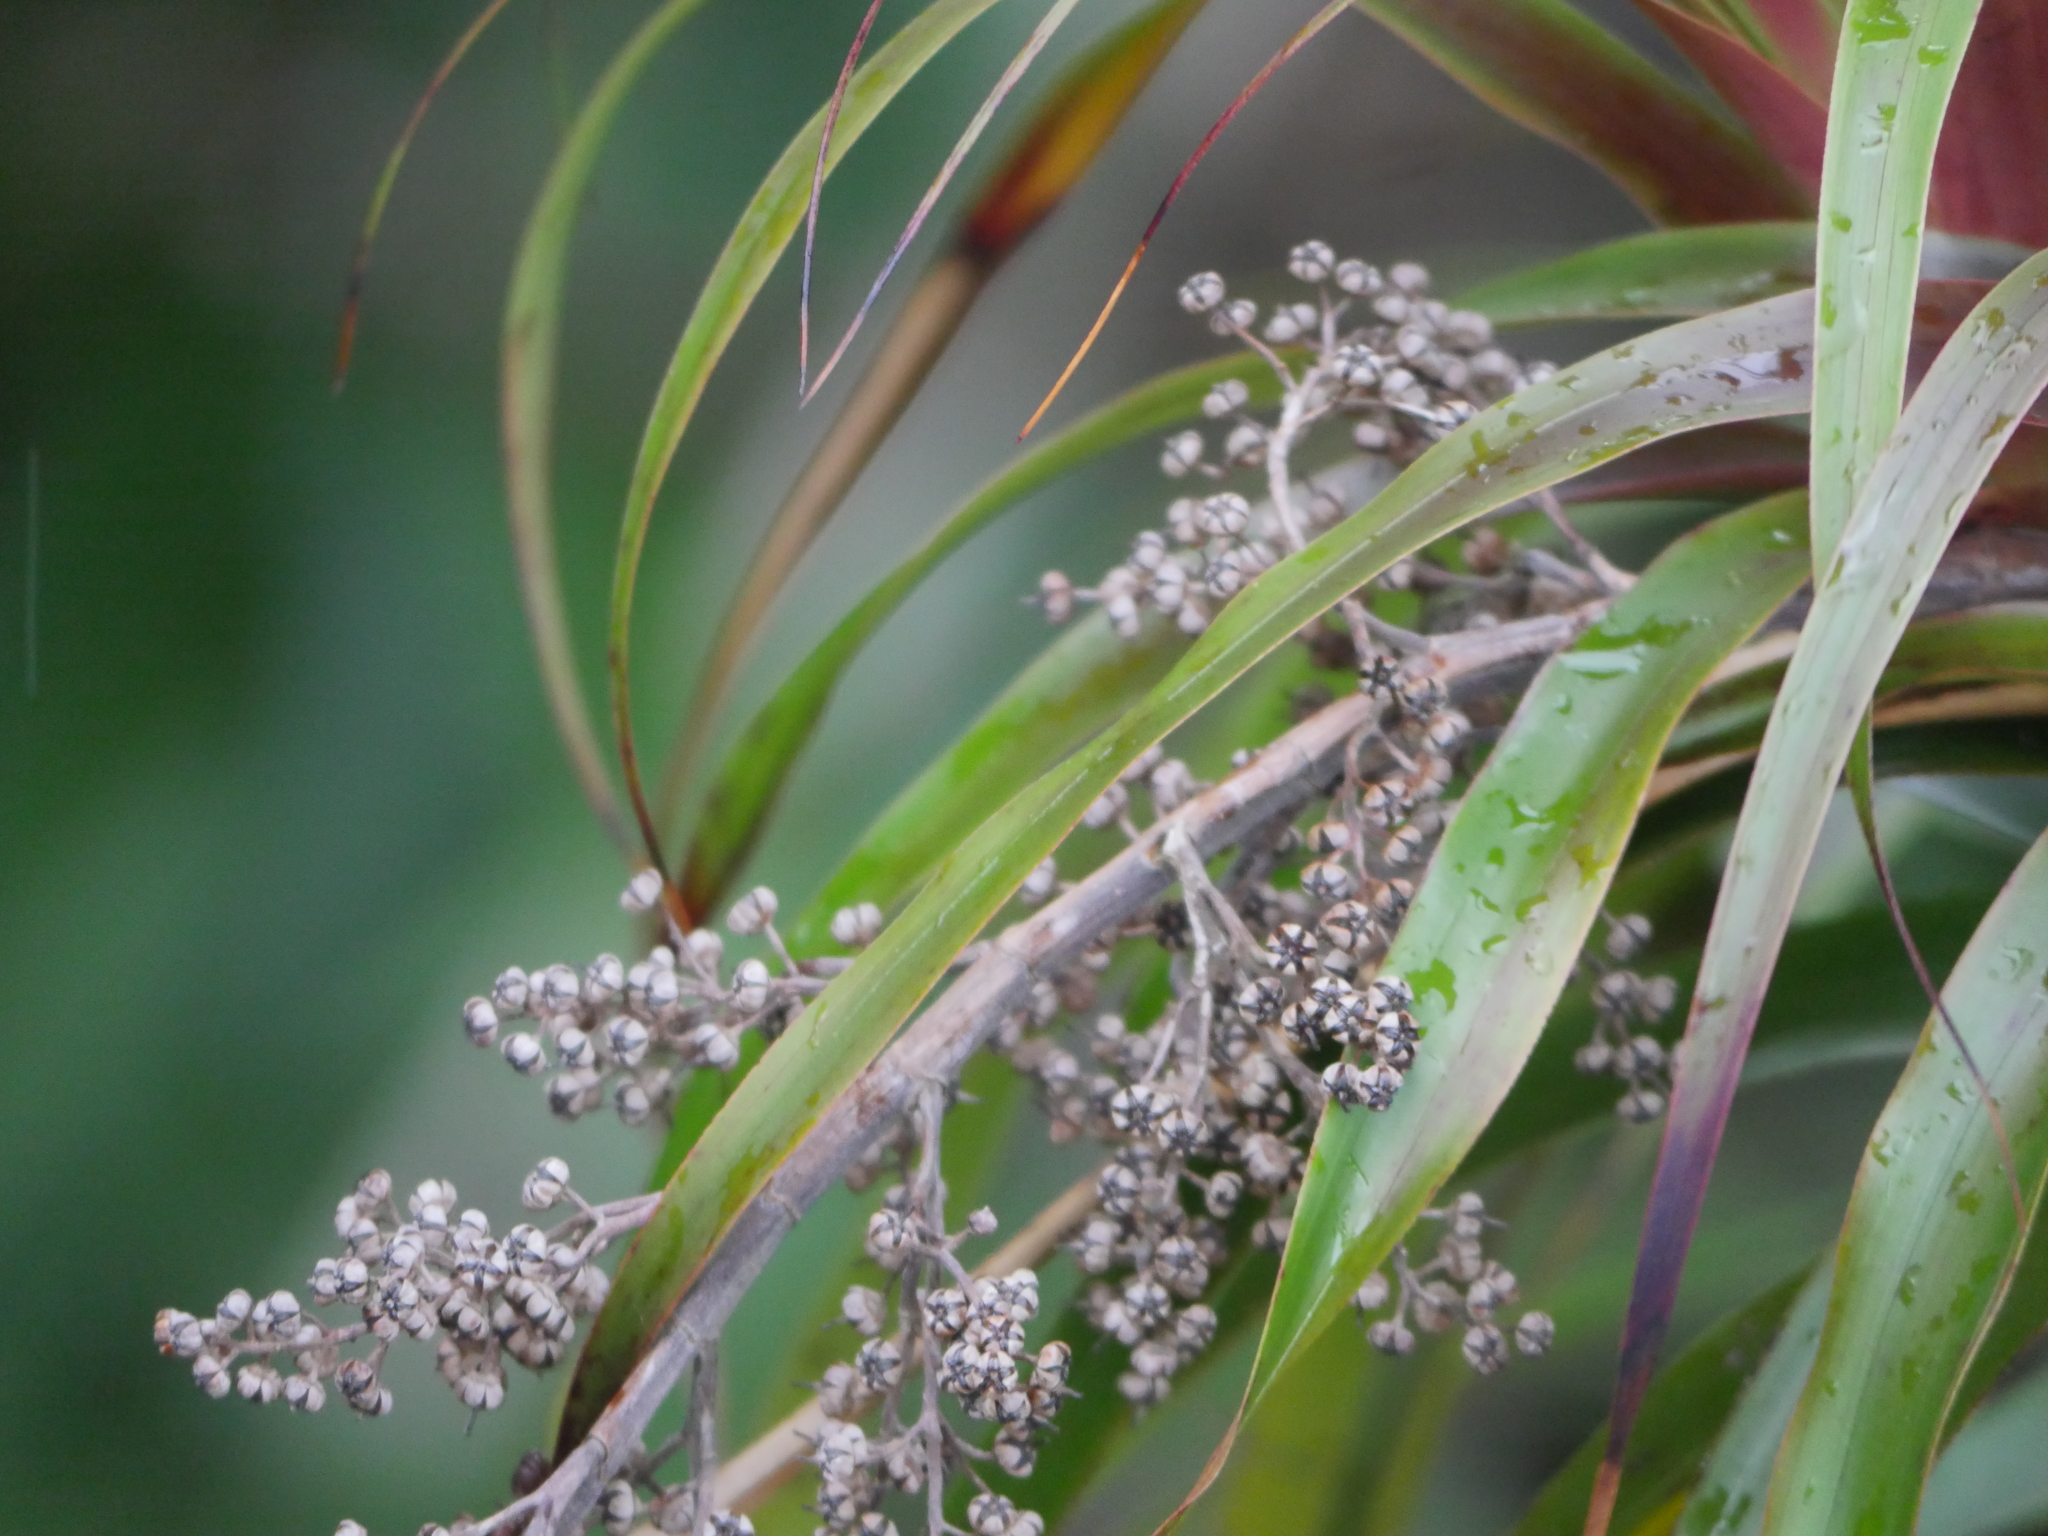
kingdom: Plantae
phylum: Tracheophyta
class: Magnoliopsida
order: Ericales
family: Ericaceae
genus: Dracophyllum
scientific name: Dracophyllum latifolium
